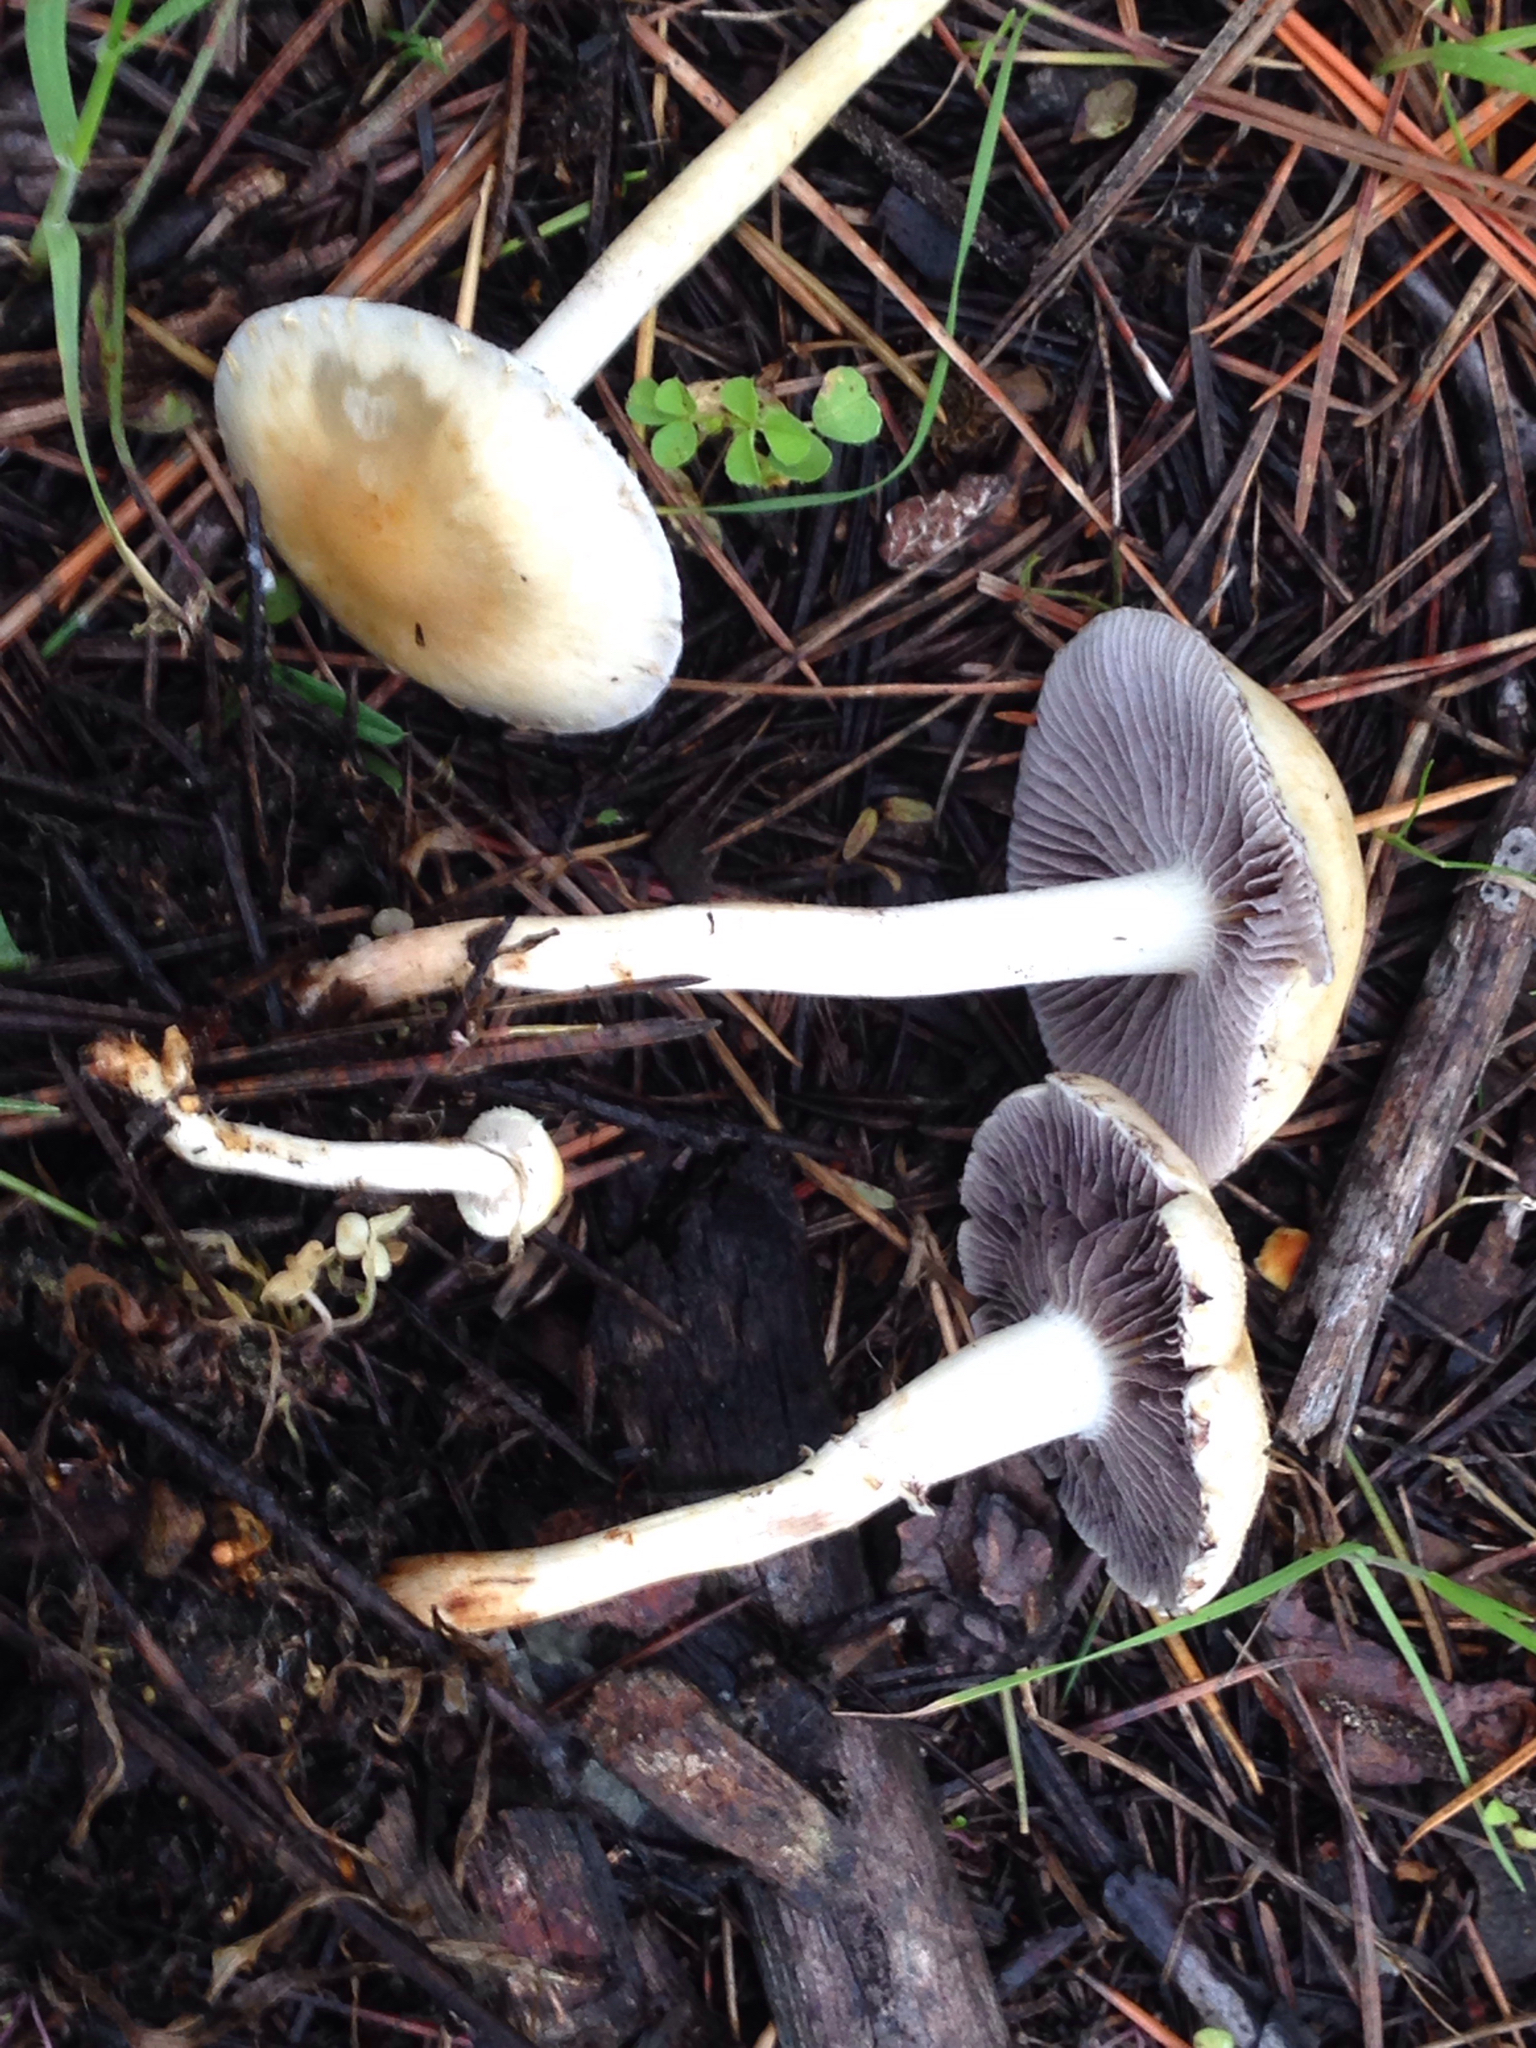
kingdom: Fungi
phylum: Basidiomycota
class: Agaricomycetes
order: Agaricales
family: Strophariaceae
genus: Leratiomyces
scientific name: Leratiomyces percevalii
